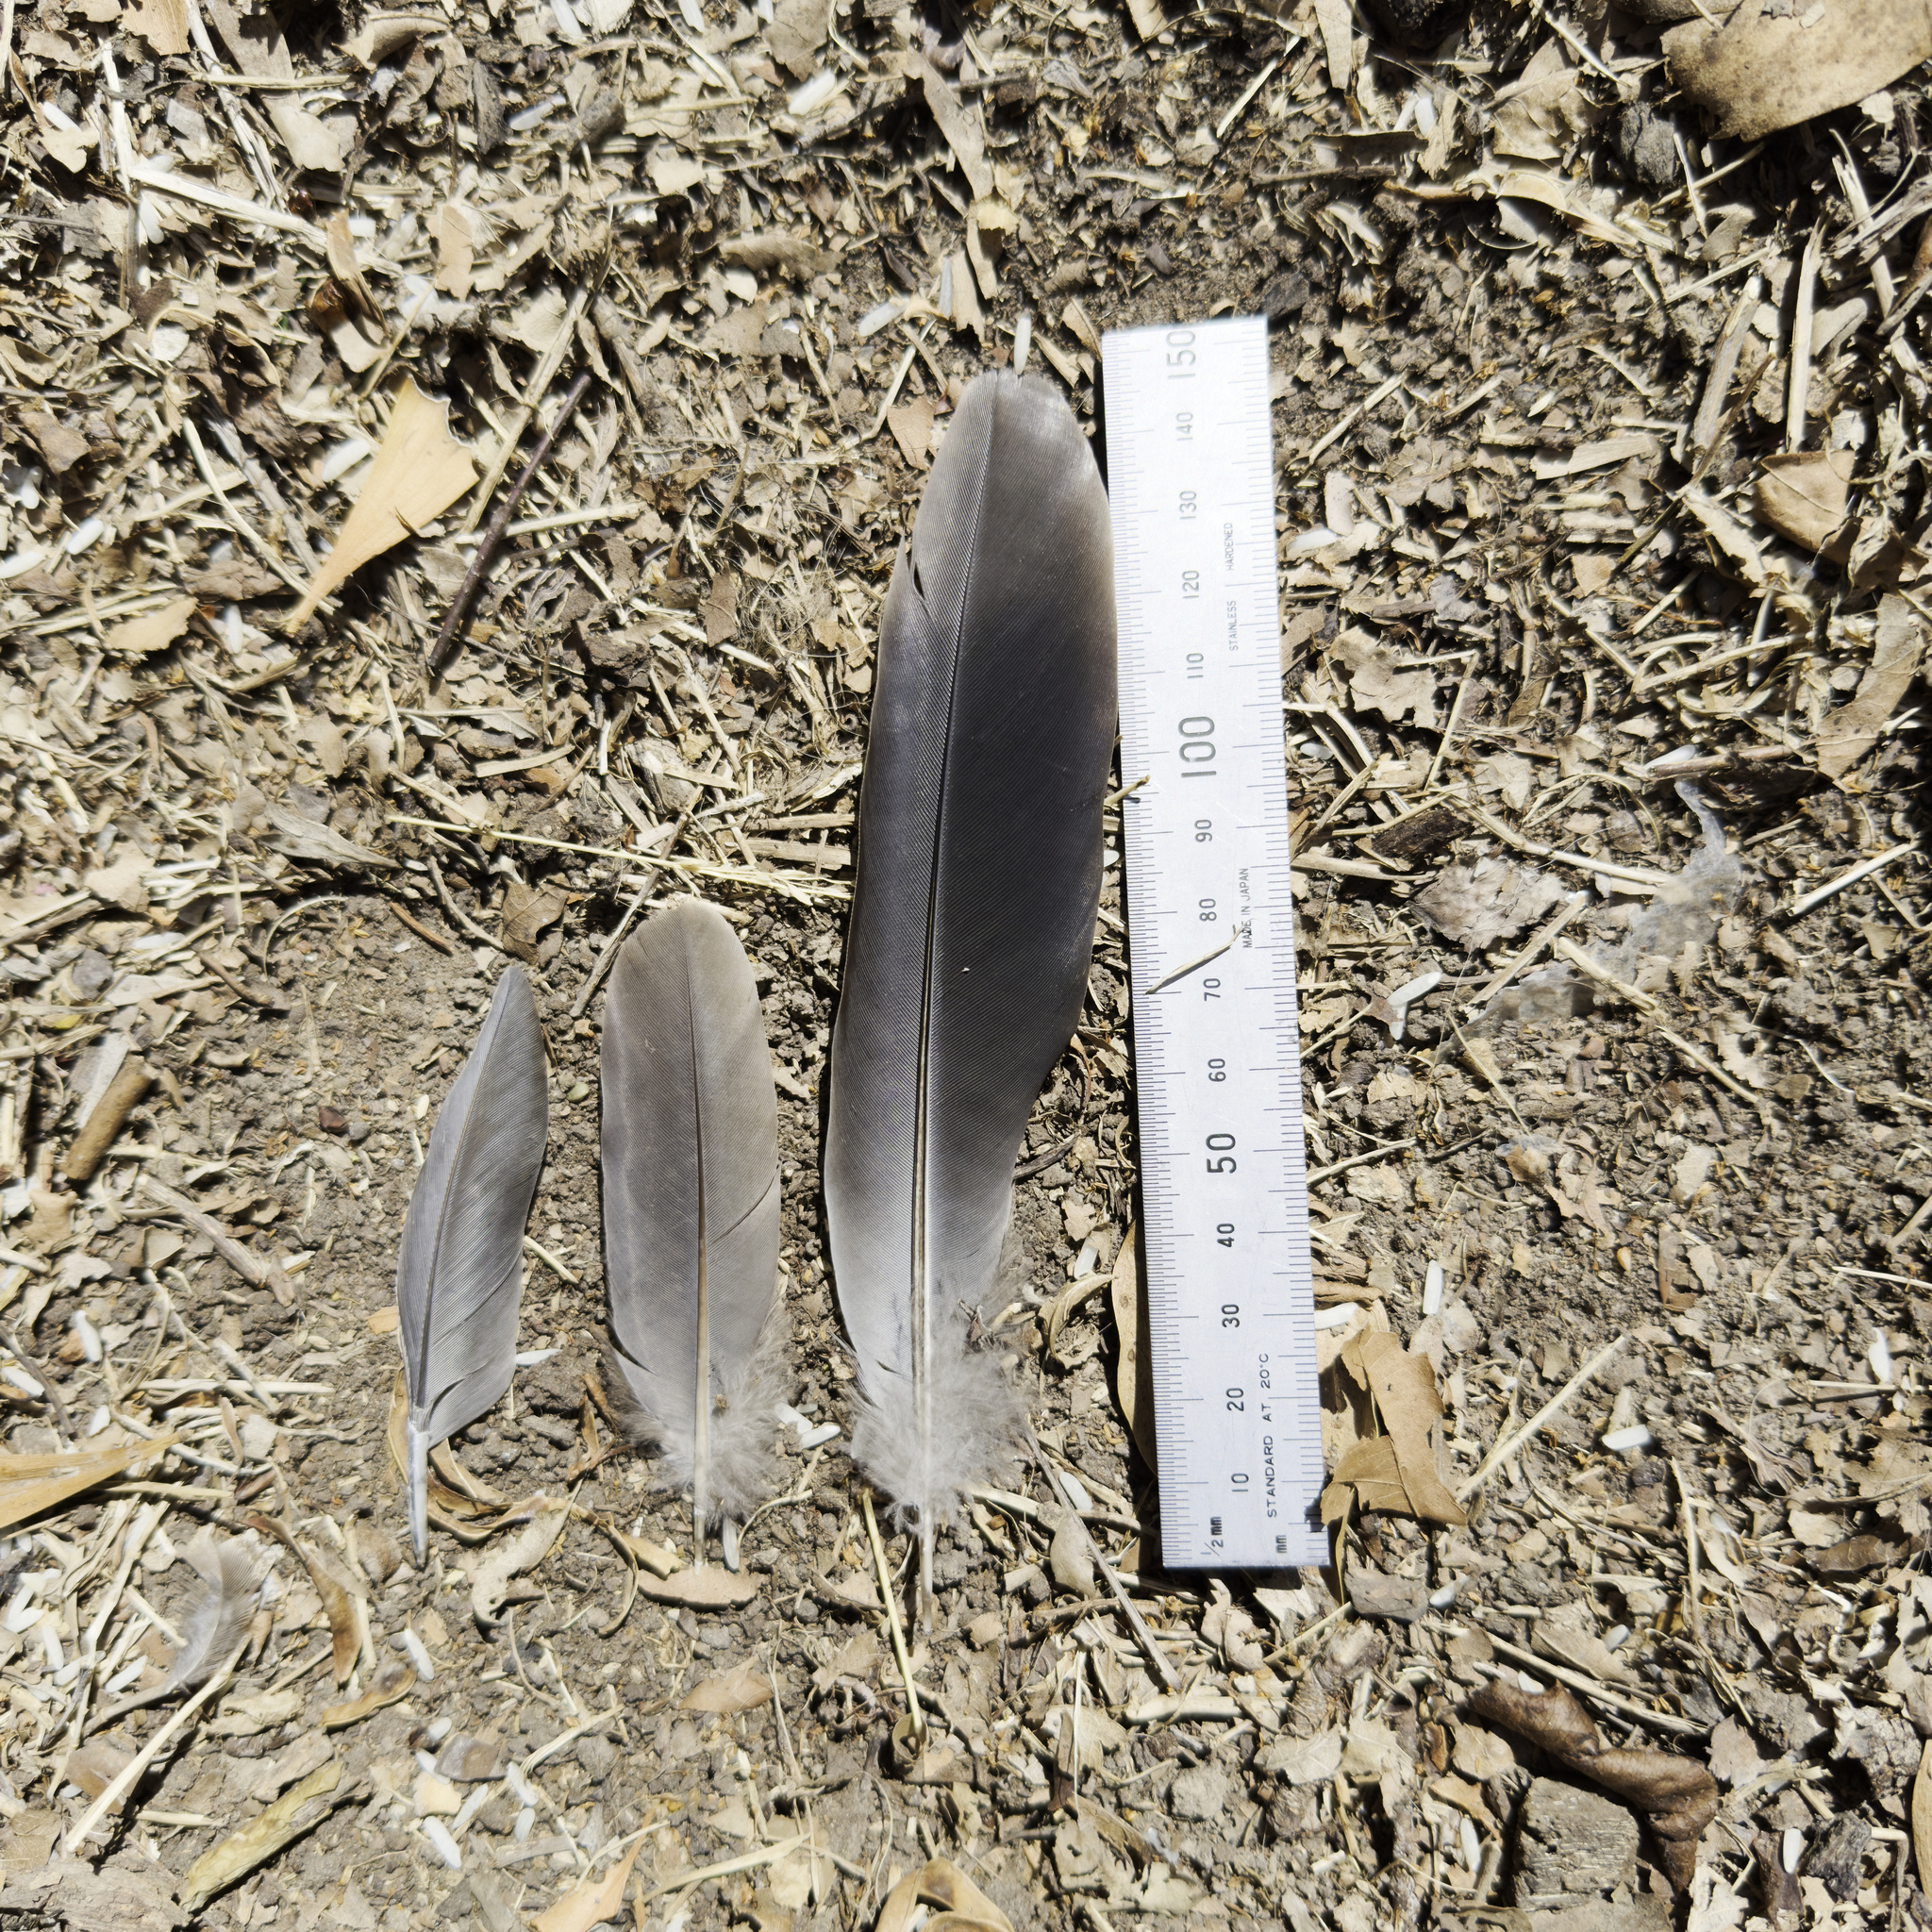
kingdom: Animalia
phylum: Chordata
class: Aves
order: Columbiformes
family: Columbidae
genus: Spilopelia
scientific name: Spilopelia chinensis
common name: Spotted dove
